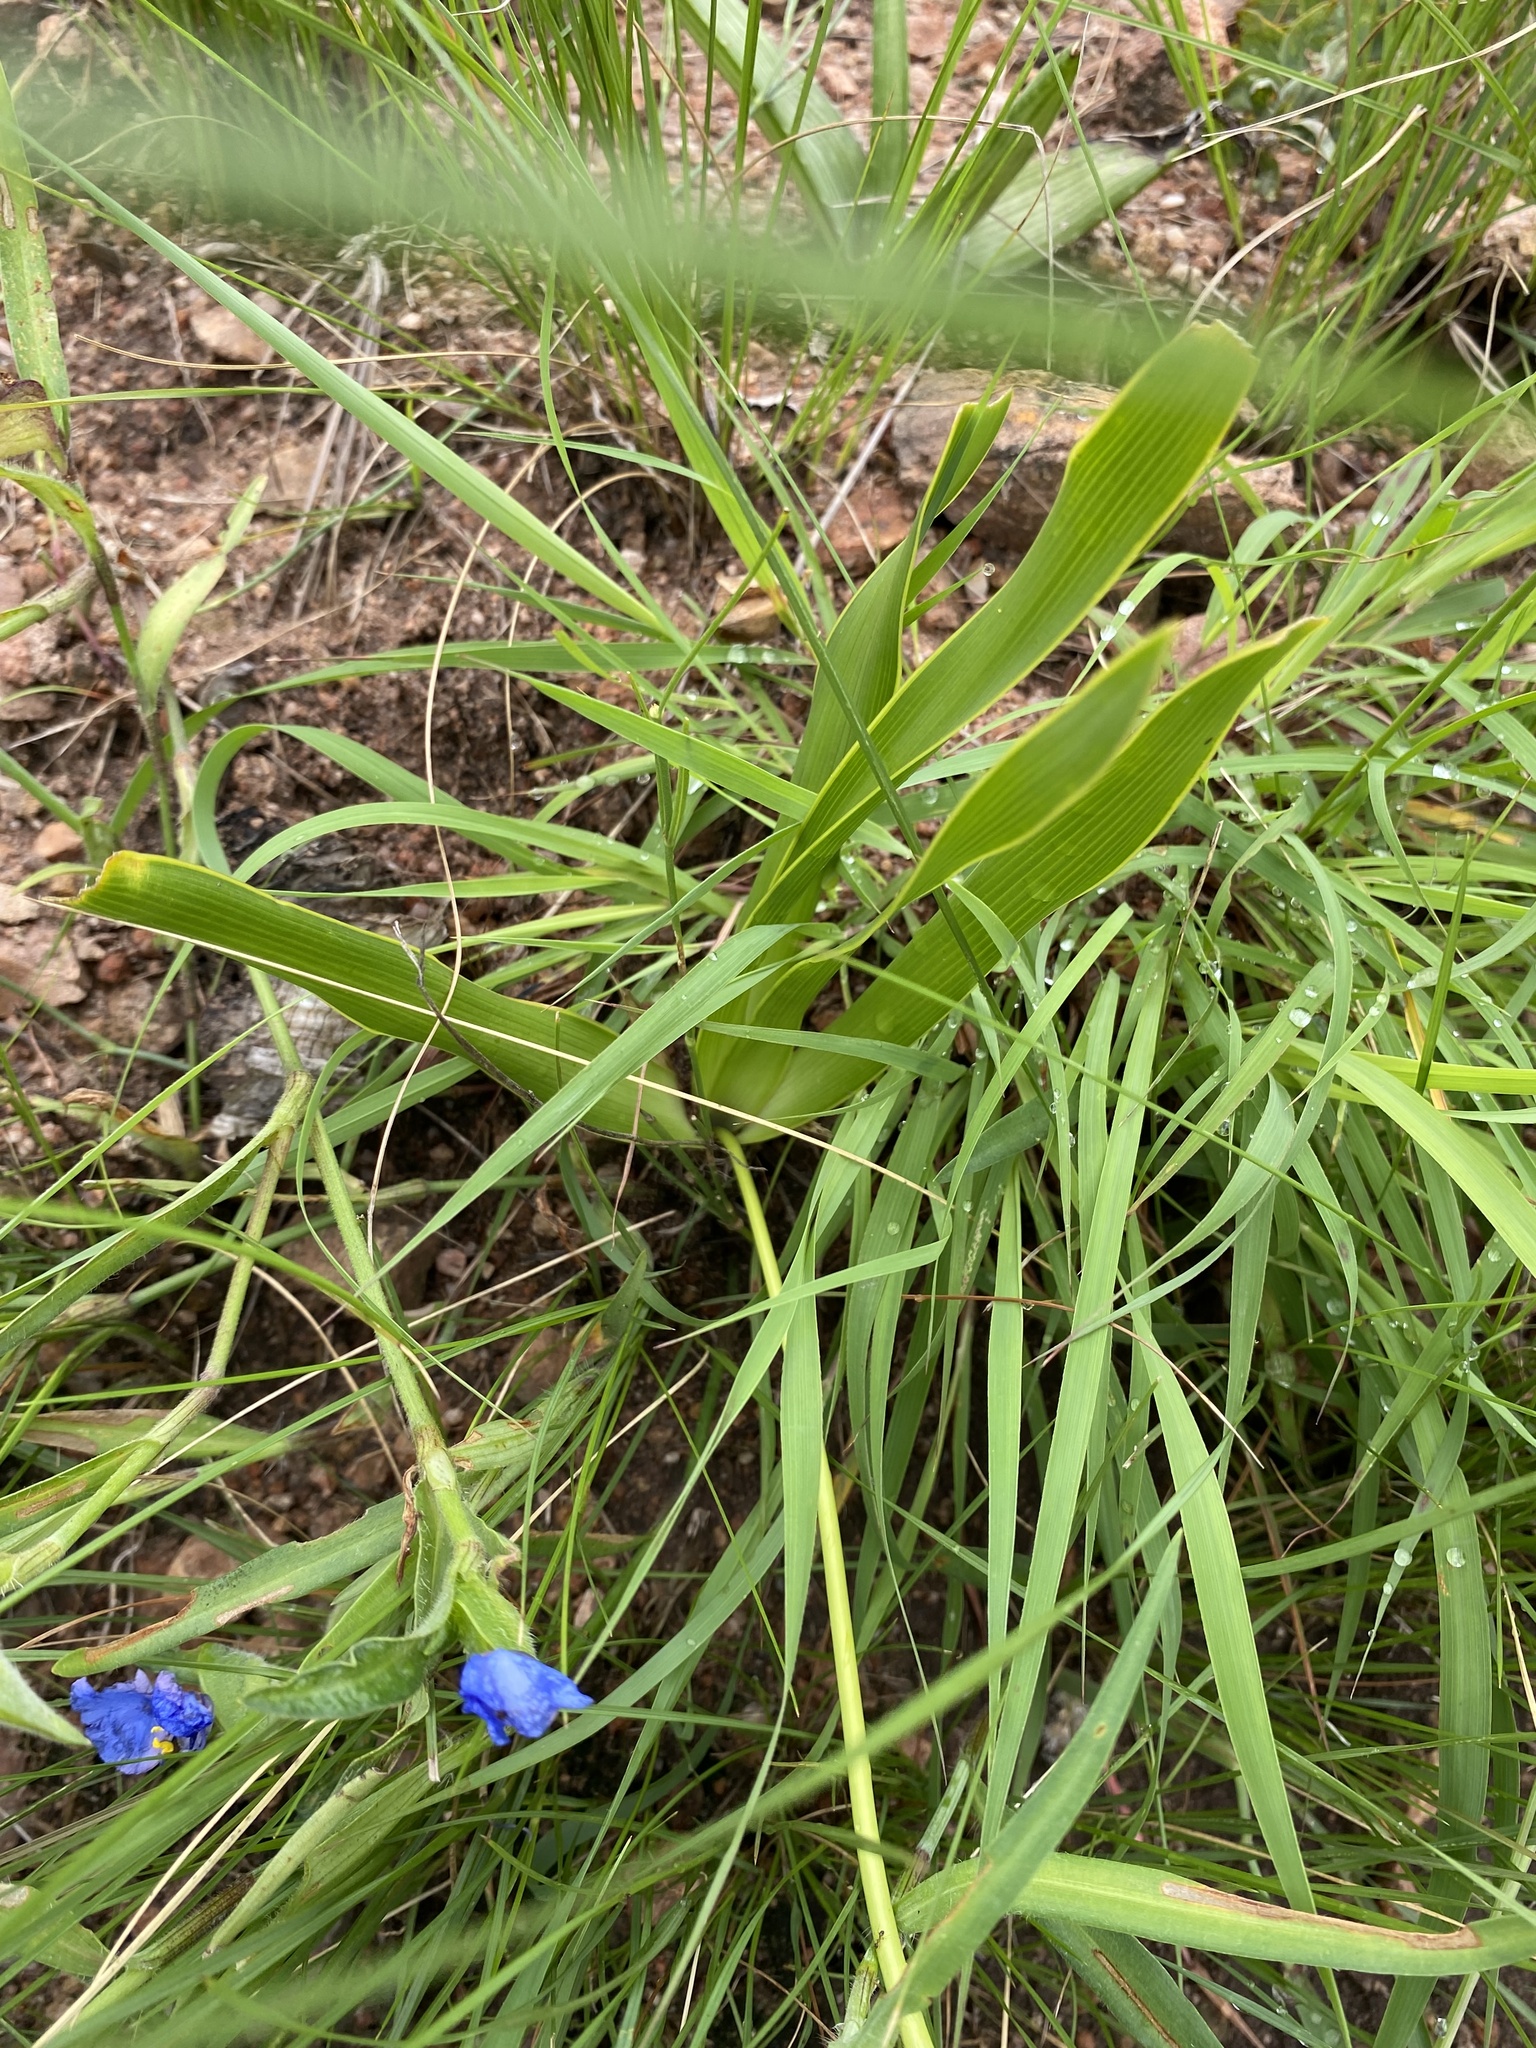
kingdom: Plantae
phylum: Tracheophyta
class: Liliopsida
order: Asparagales
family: Asparagaceae
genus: Schizocarphus
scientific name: Schizocarphus nervosus
